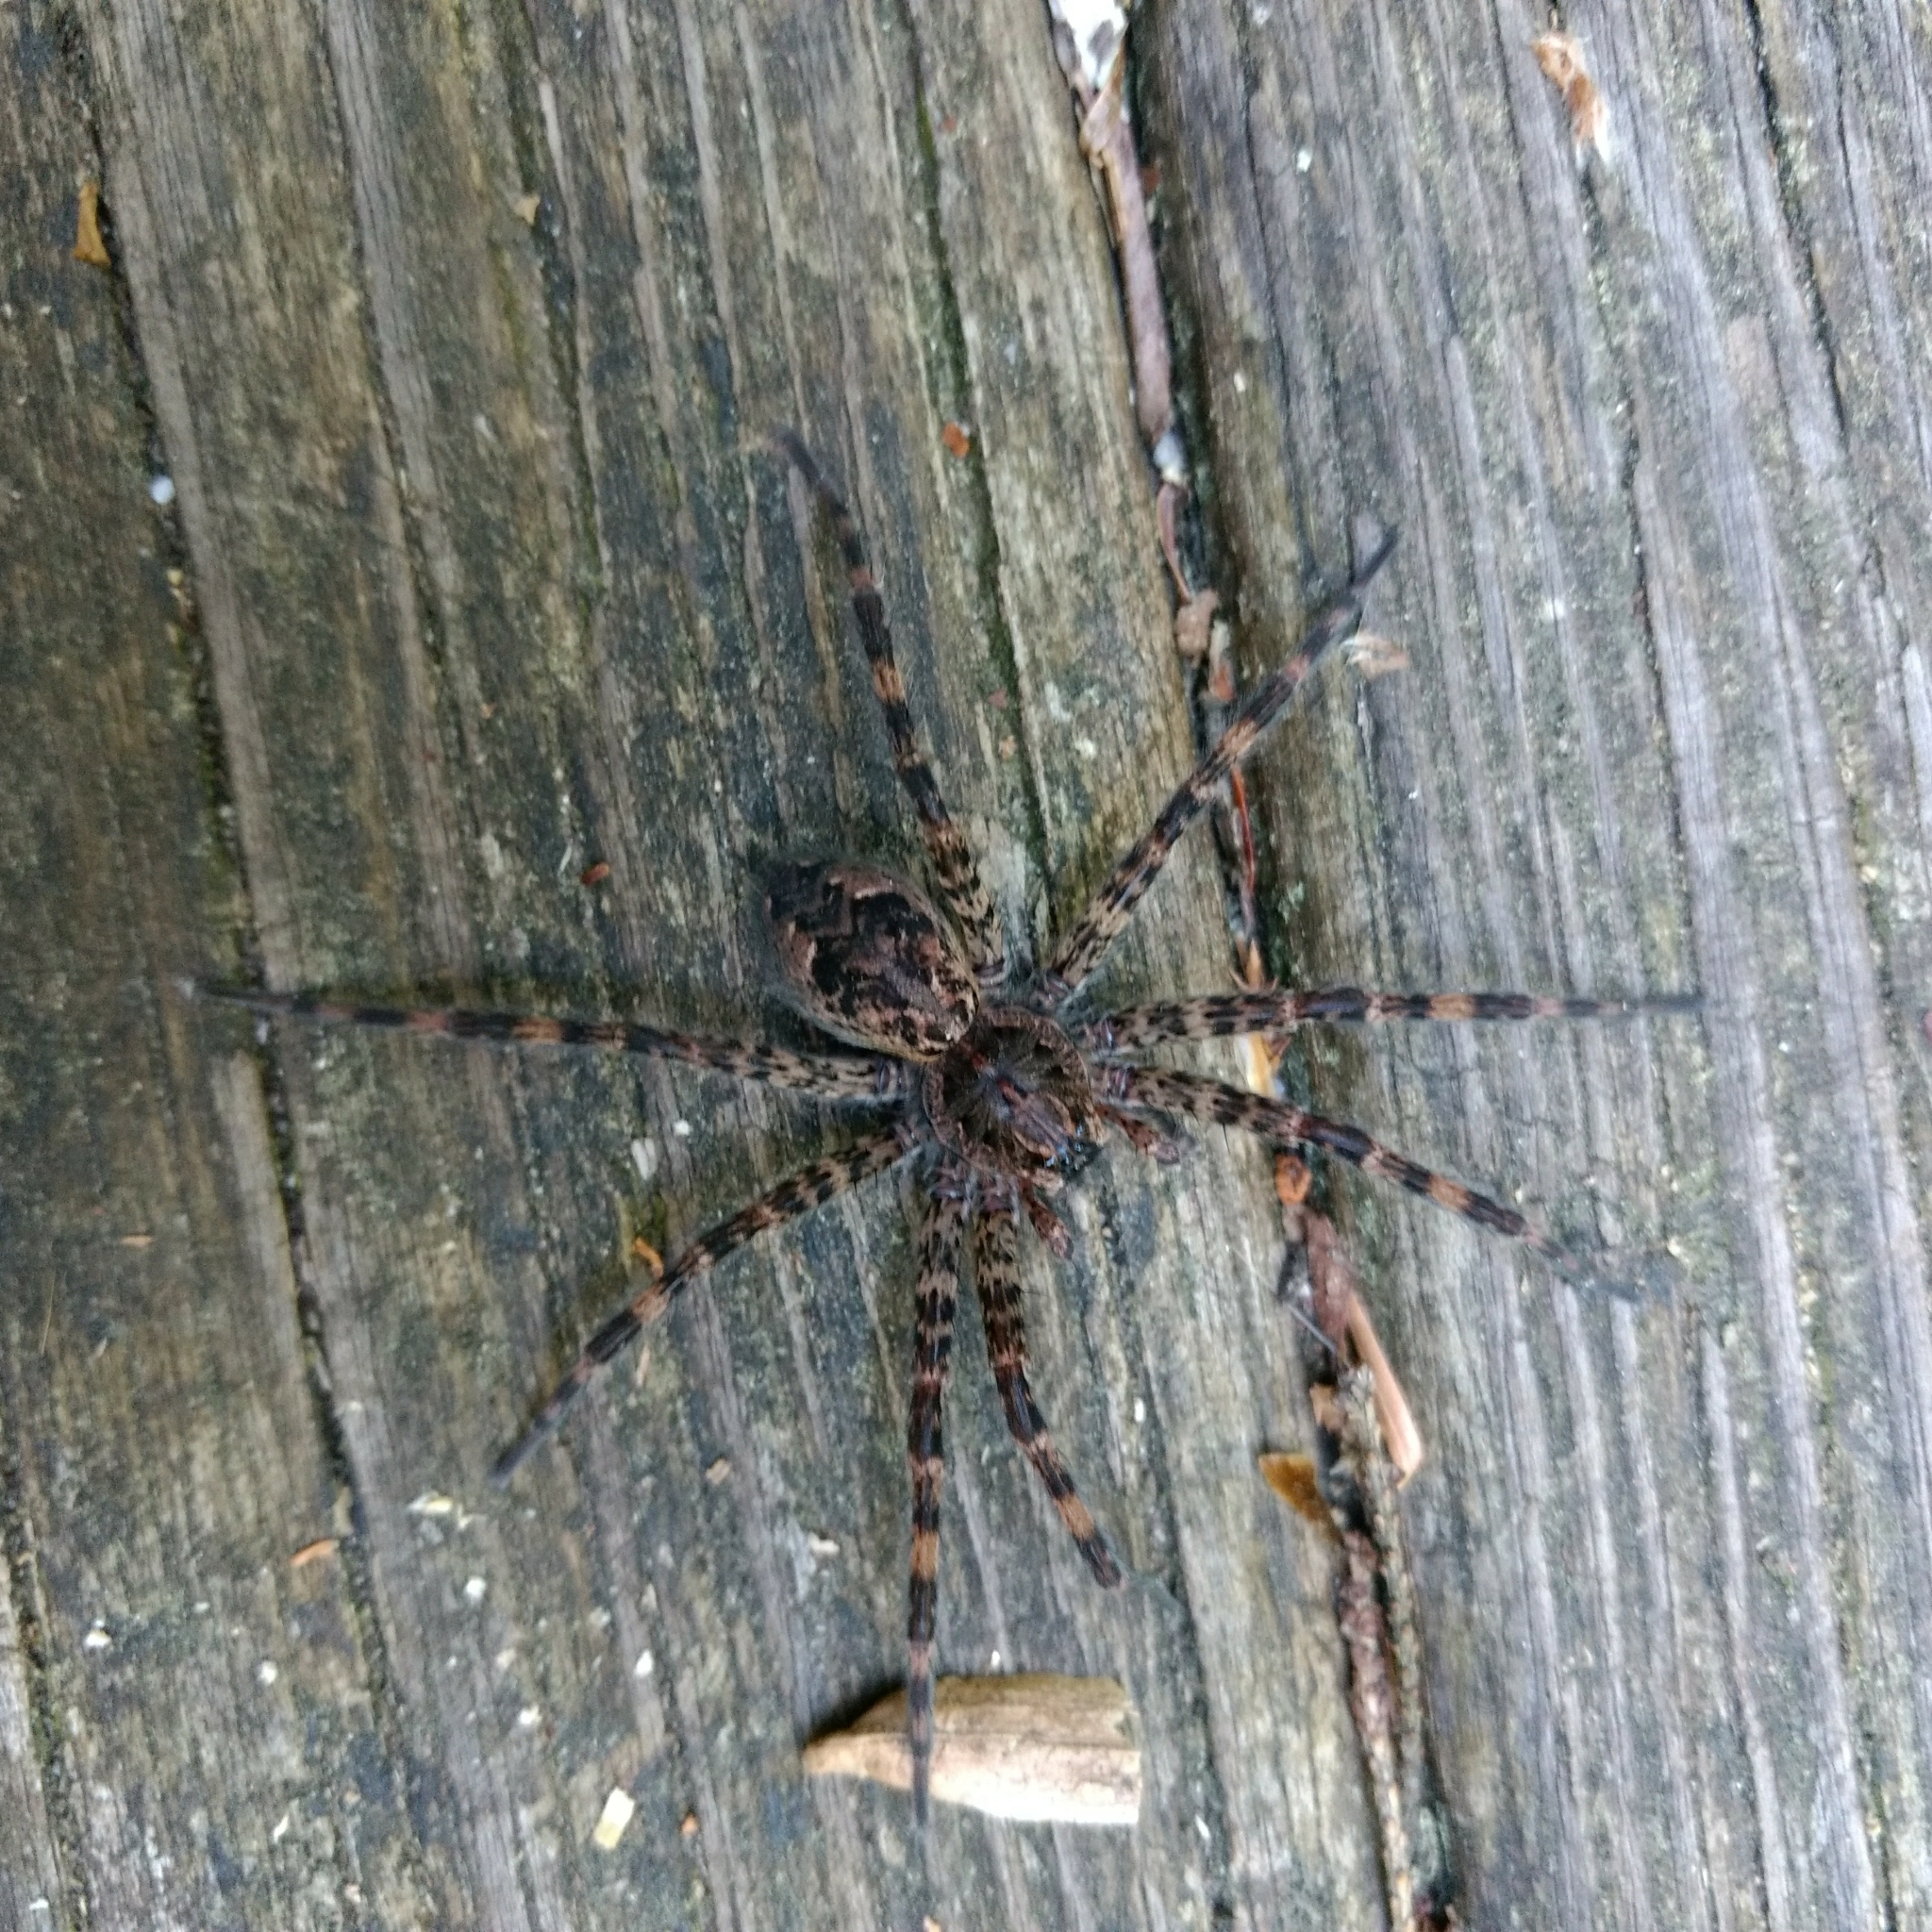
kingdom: Animalia
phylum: Arthropoda
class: Arachnida
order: Araneae
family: Pisauridae
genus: Dolomedes
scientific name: Dolomedes tenebrosus
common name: Dark fishing spider
